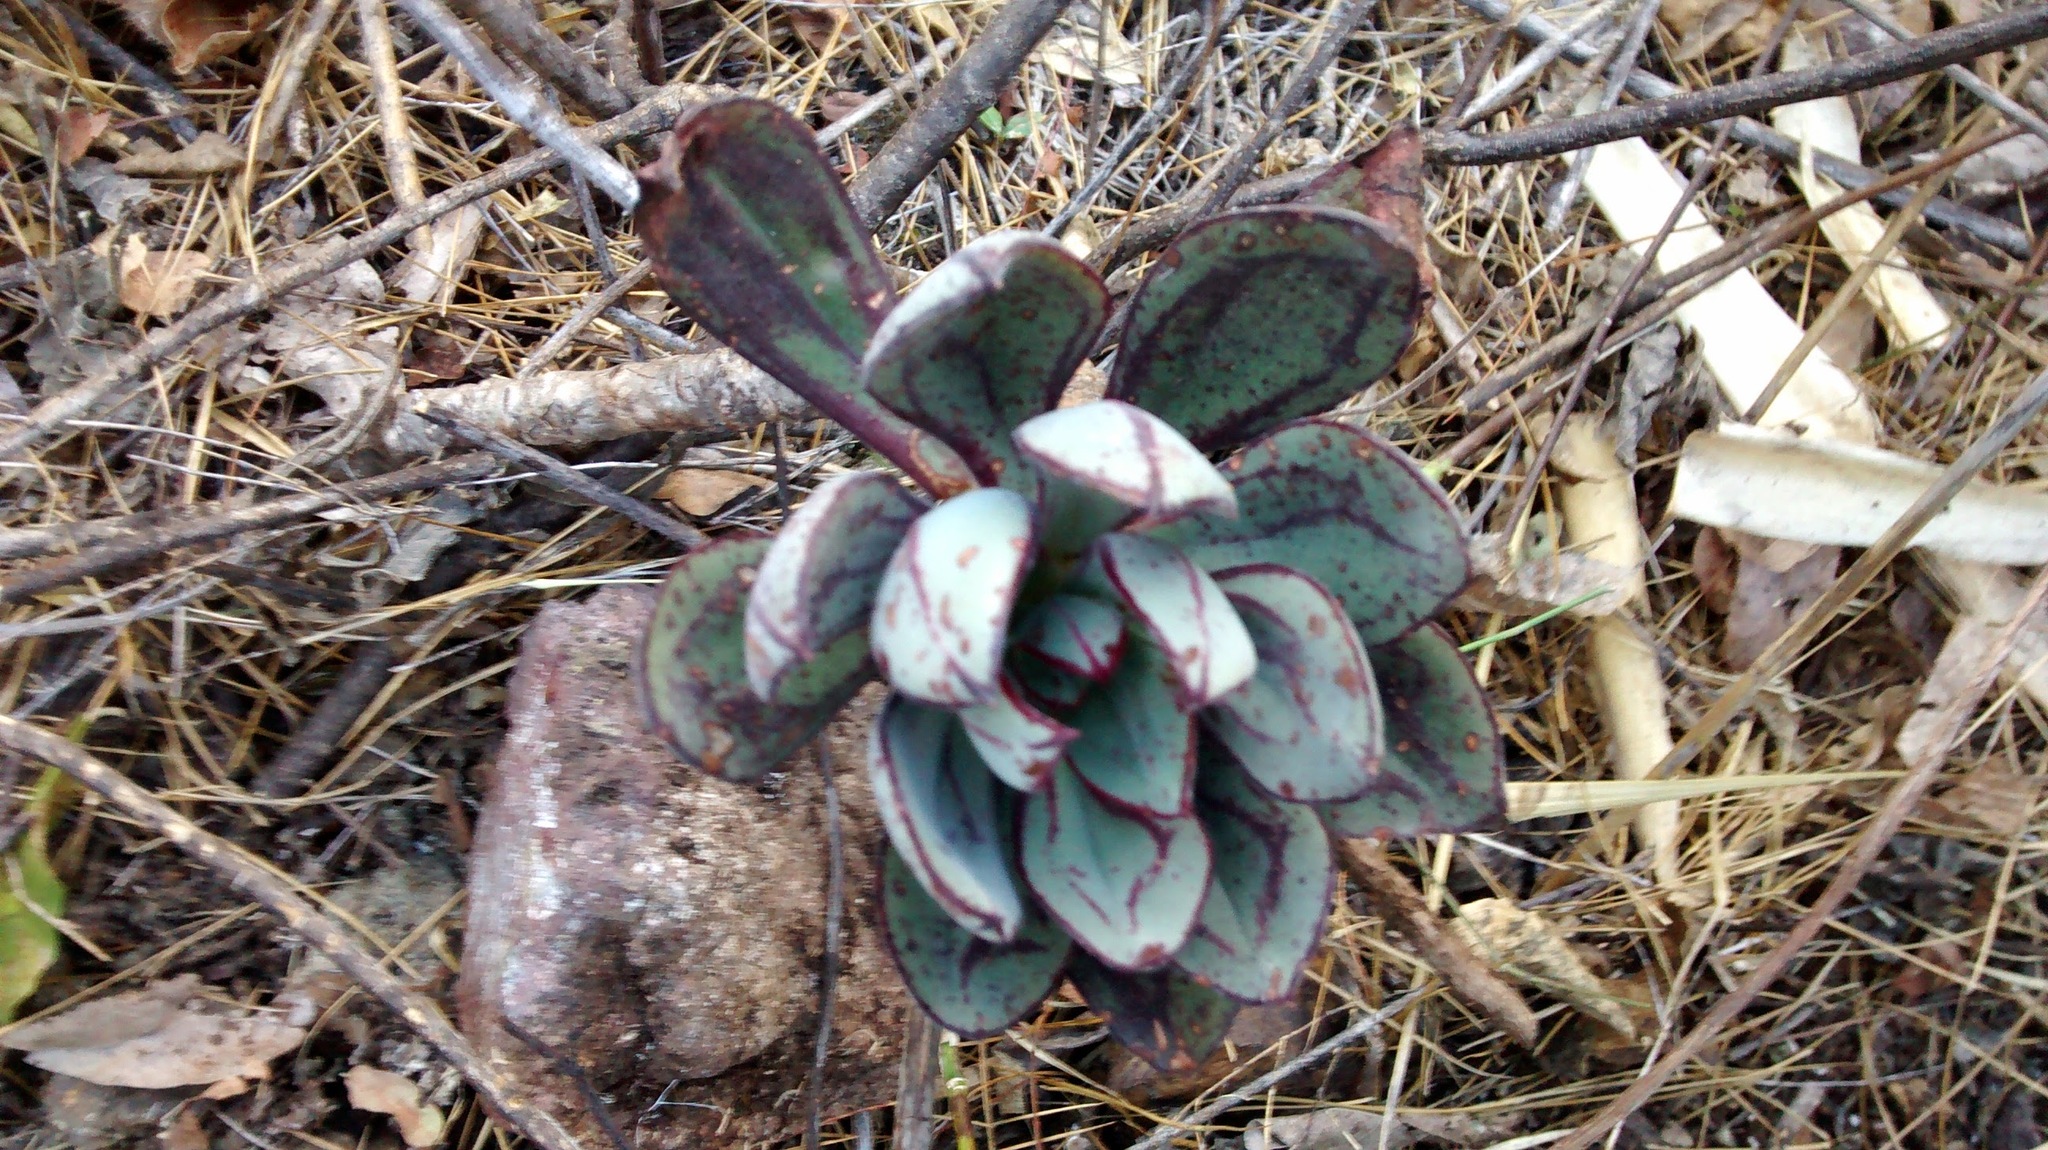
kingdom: Plantae
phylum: Tracheophyta
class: Magnoliopsida
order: Saxifragales
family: Crassulaceae
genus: Echeveria
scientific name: Echeveria nodulosa
